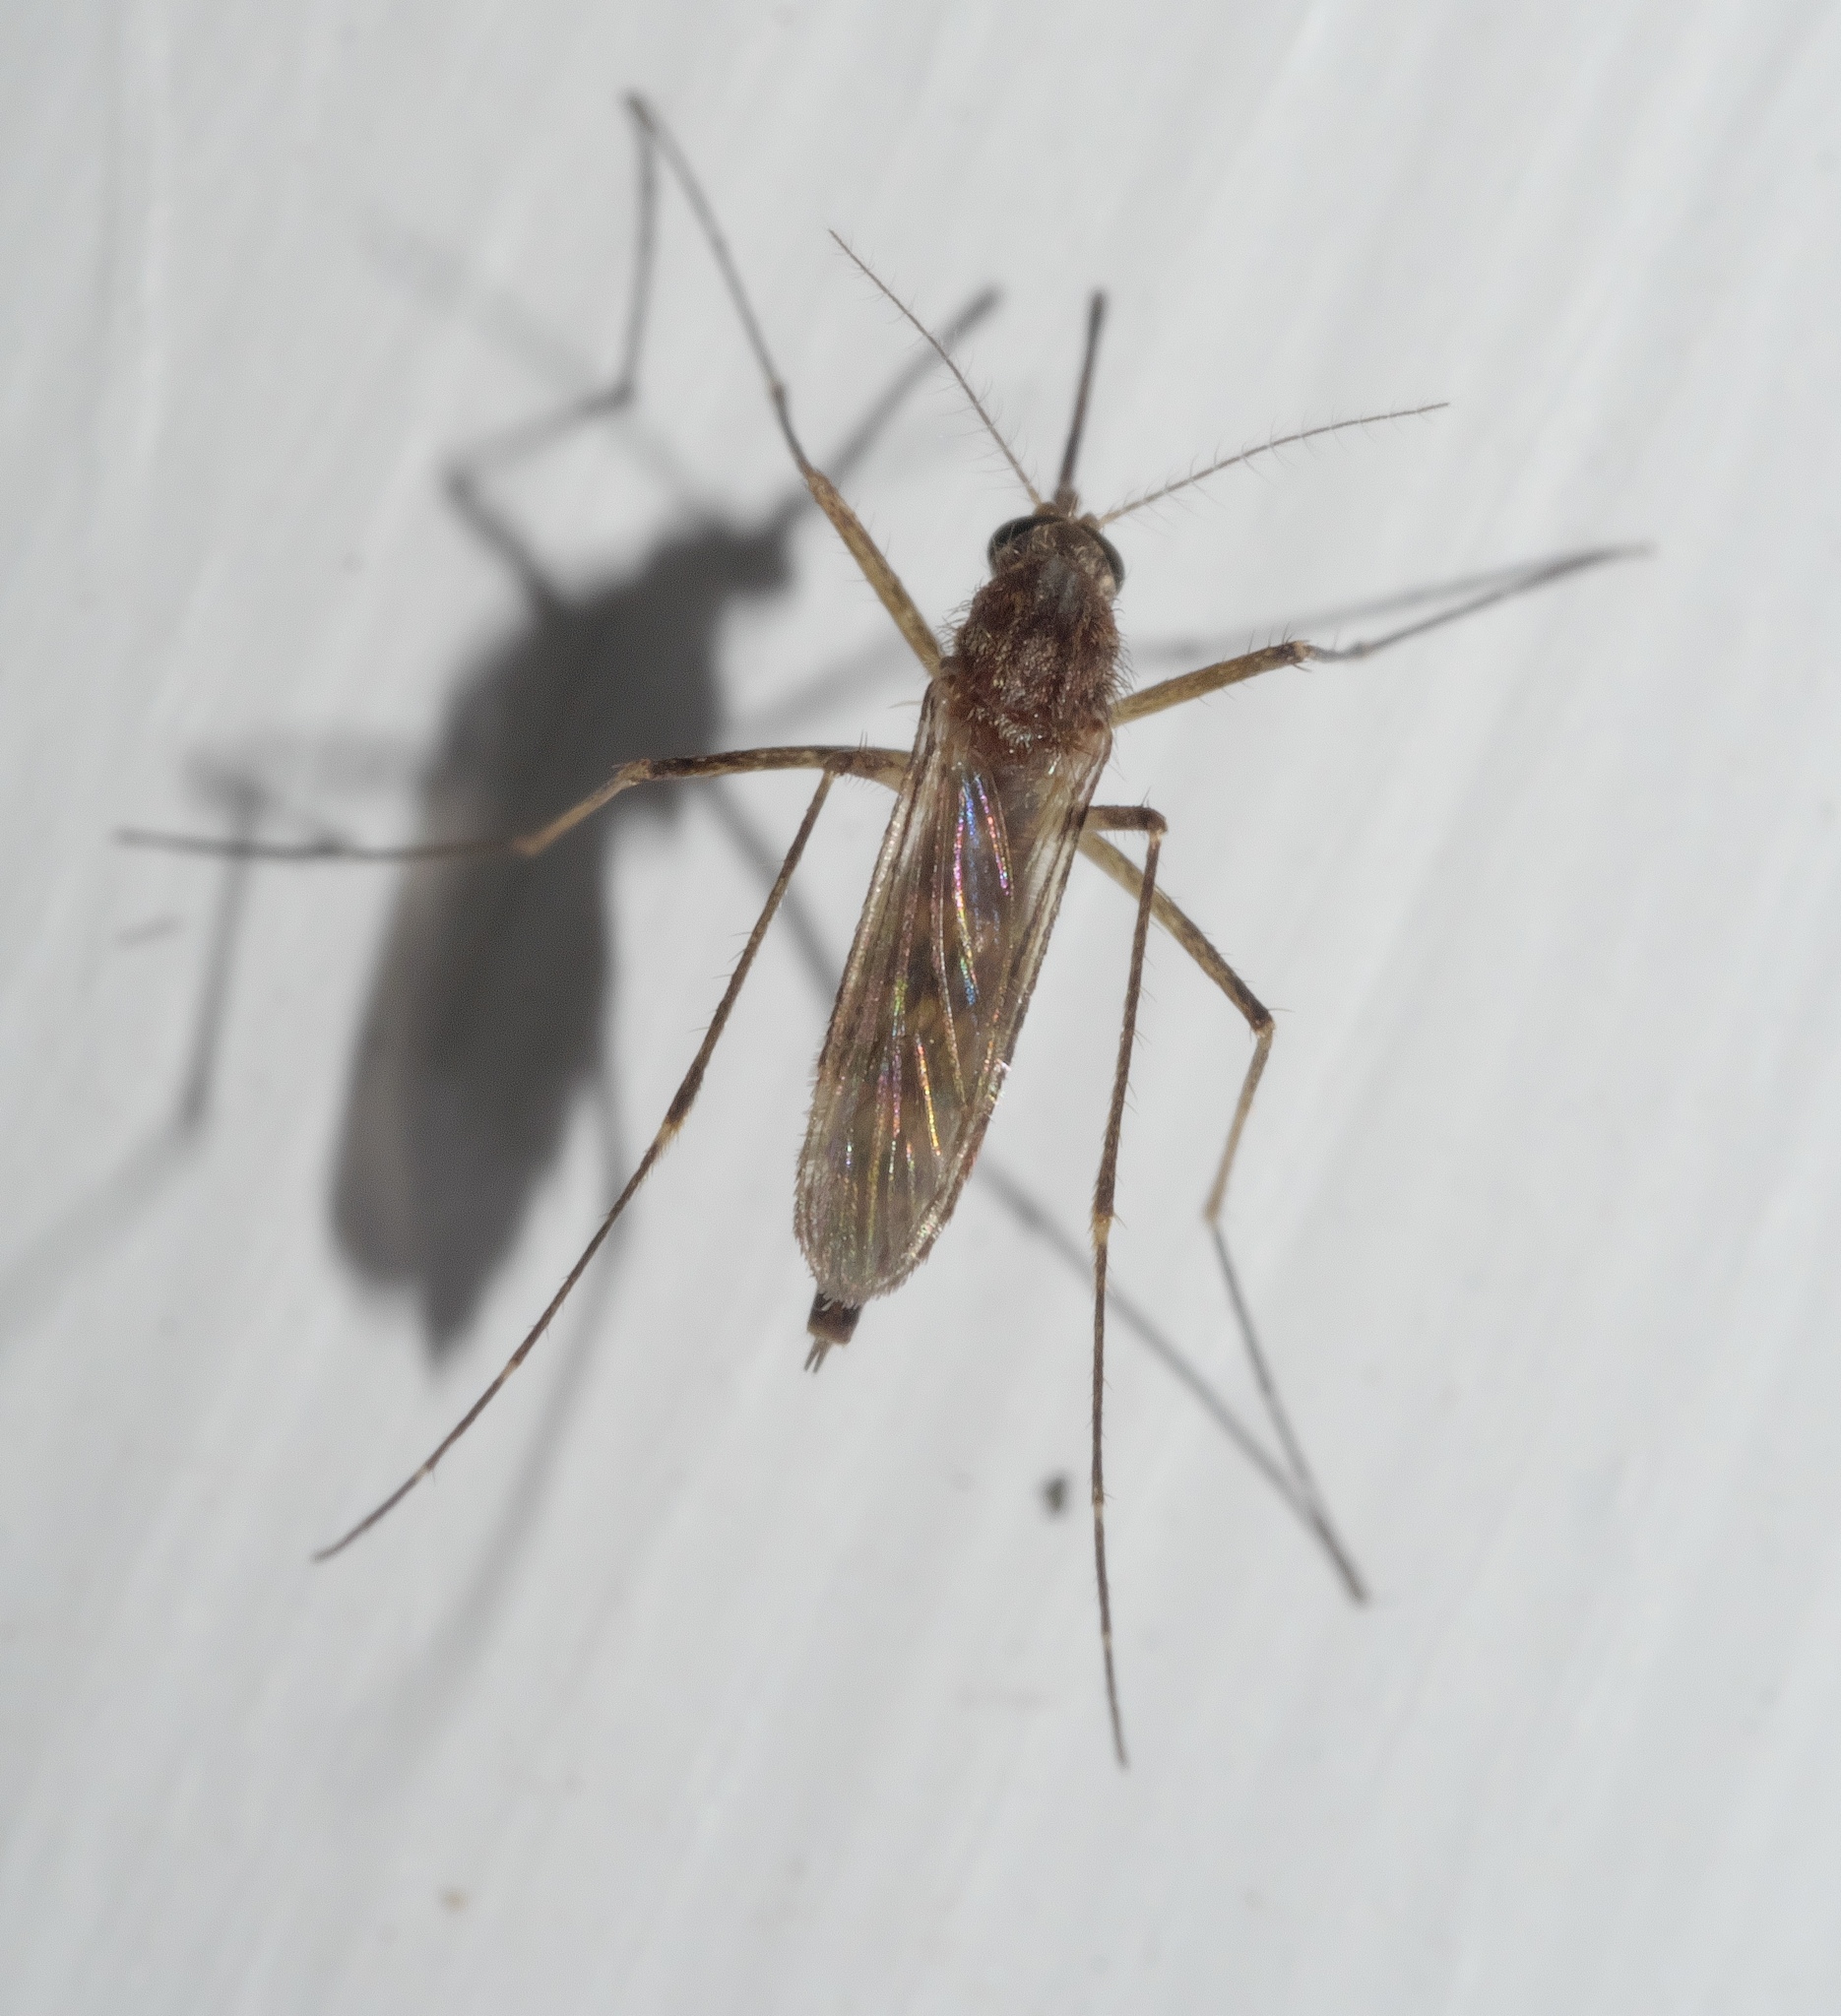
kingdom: Animalia
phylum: Arthropoda
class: Insecta
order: Diptera
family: Culicidae
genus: Aedes
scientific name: Aedes vexans
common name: Inland floodwater mosquito
